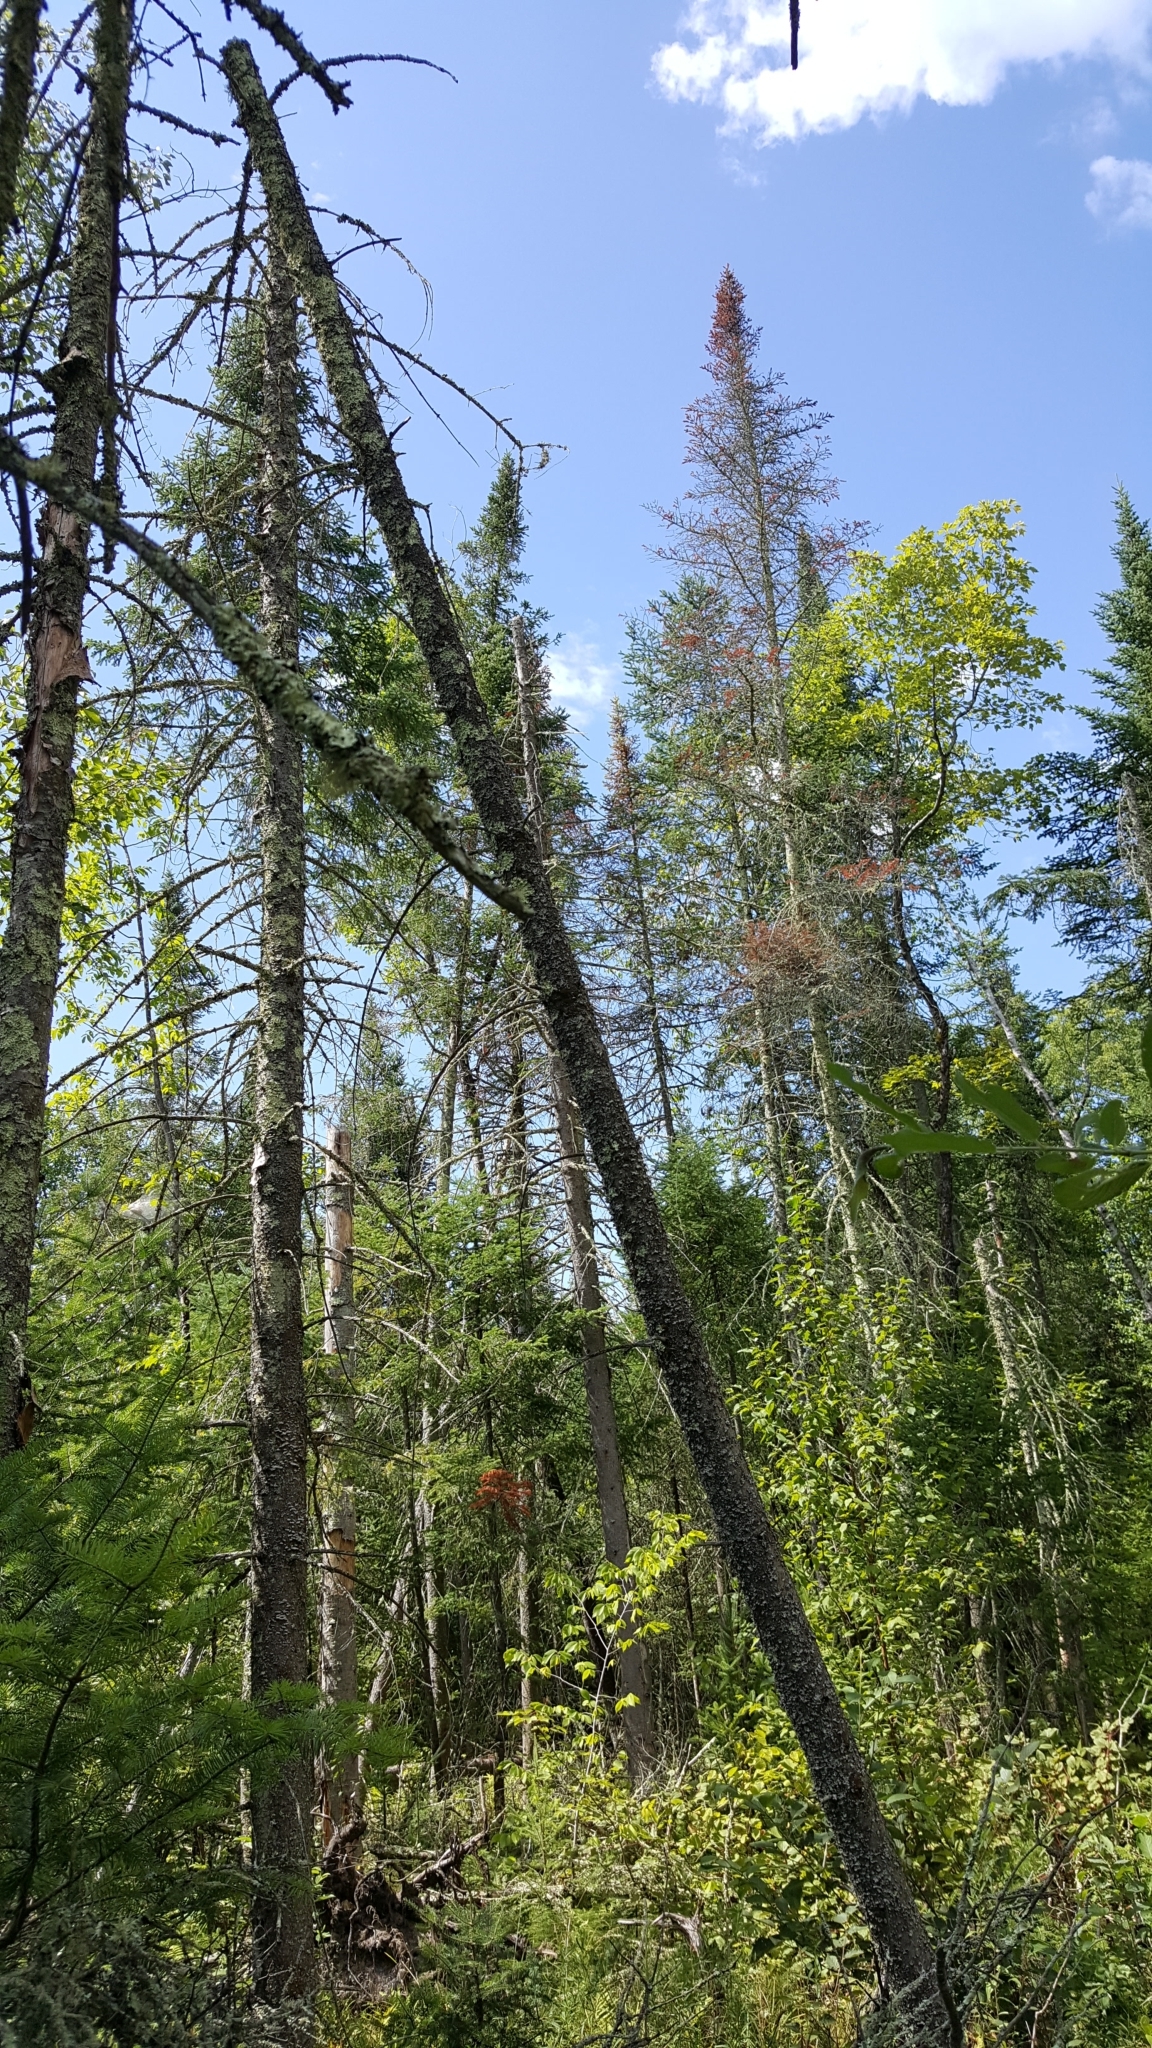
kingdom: Plantae
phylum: Tracheophyta
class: Pinopsida
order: Pinales
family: Pinaceae
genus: Abies
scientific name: Abies balsamea
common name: Balsam fir
